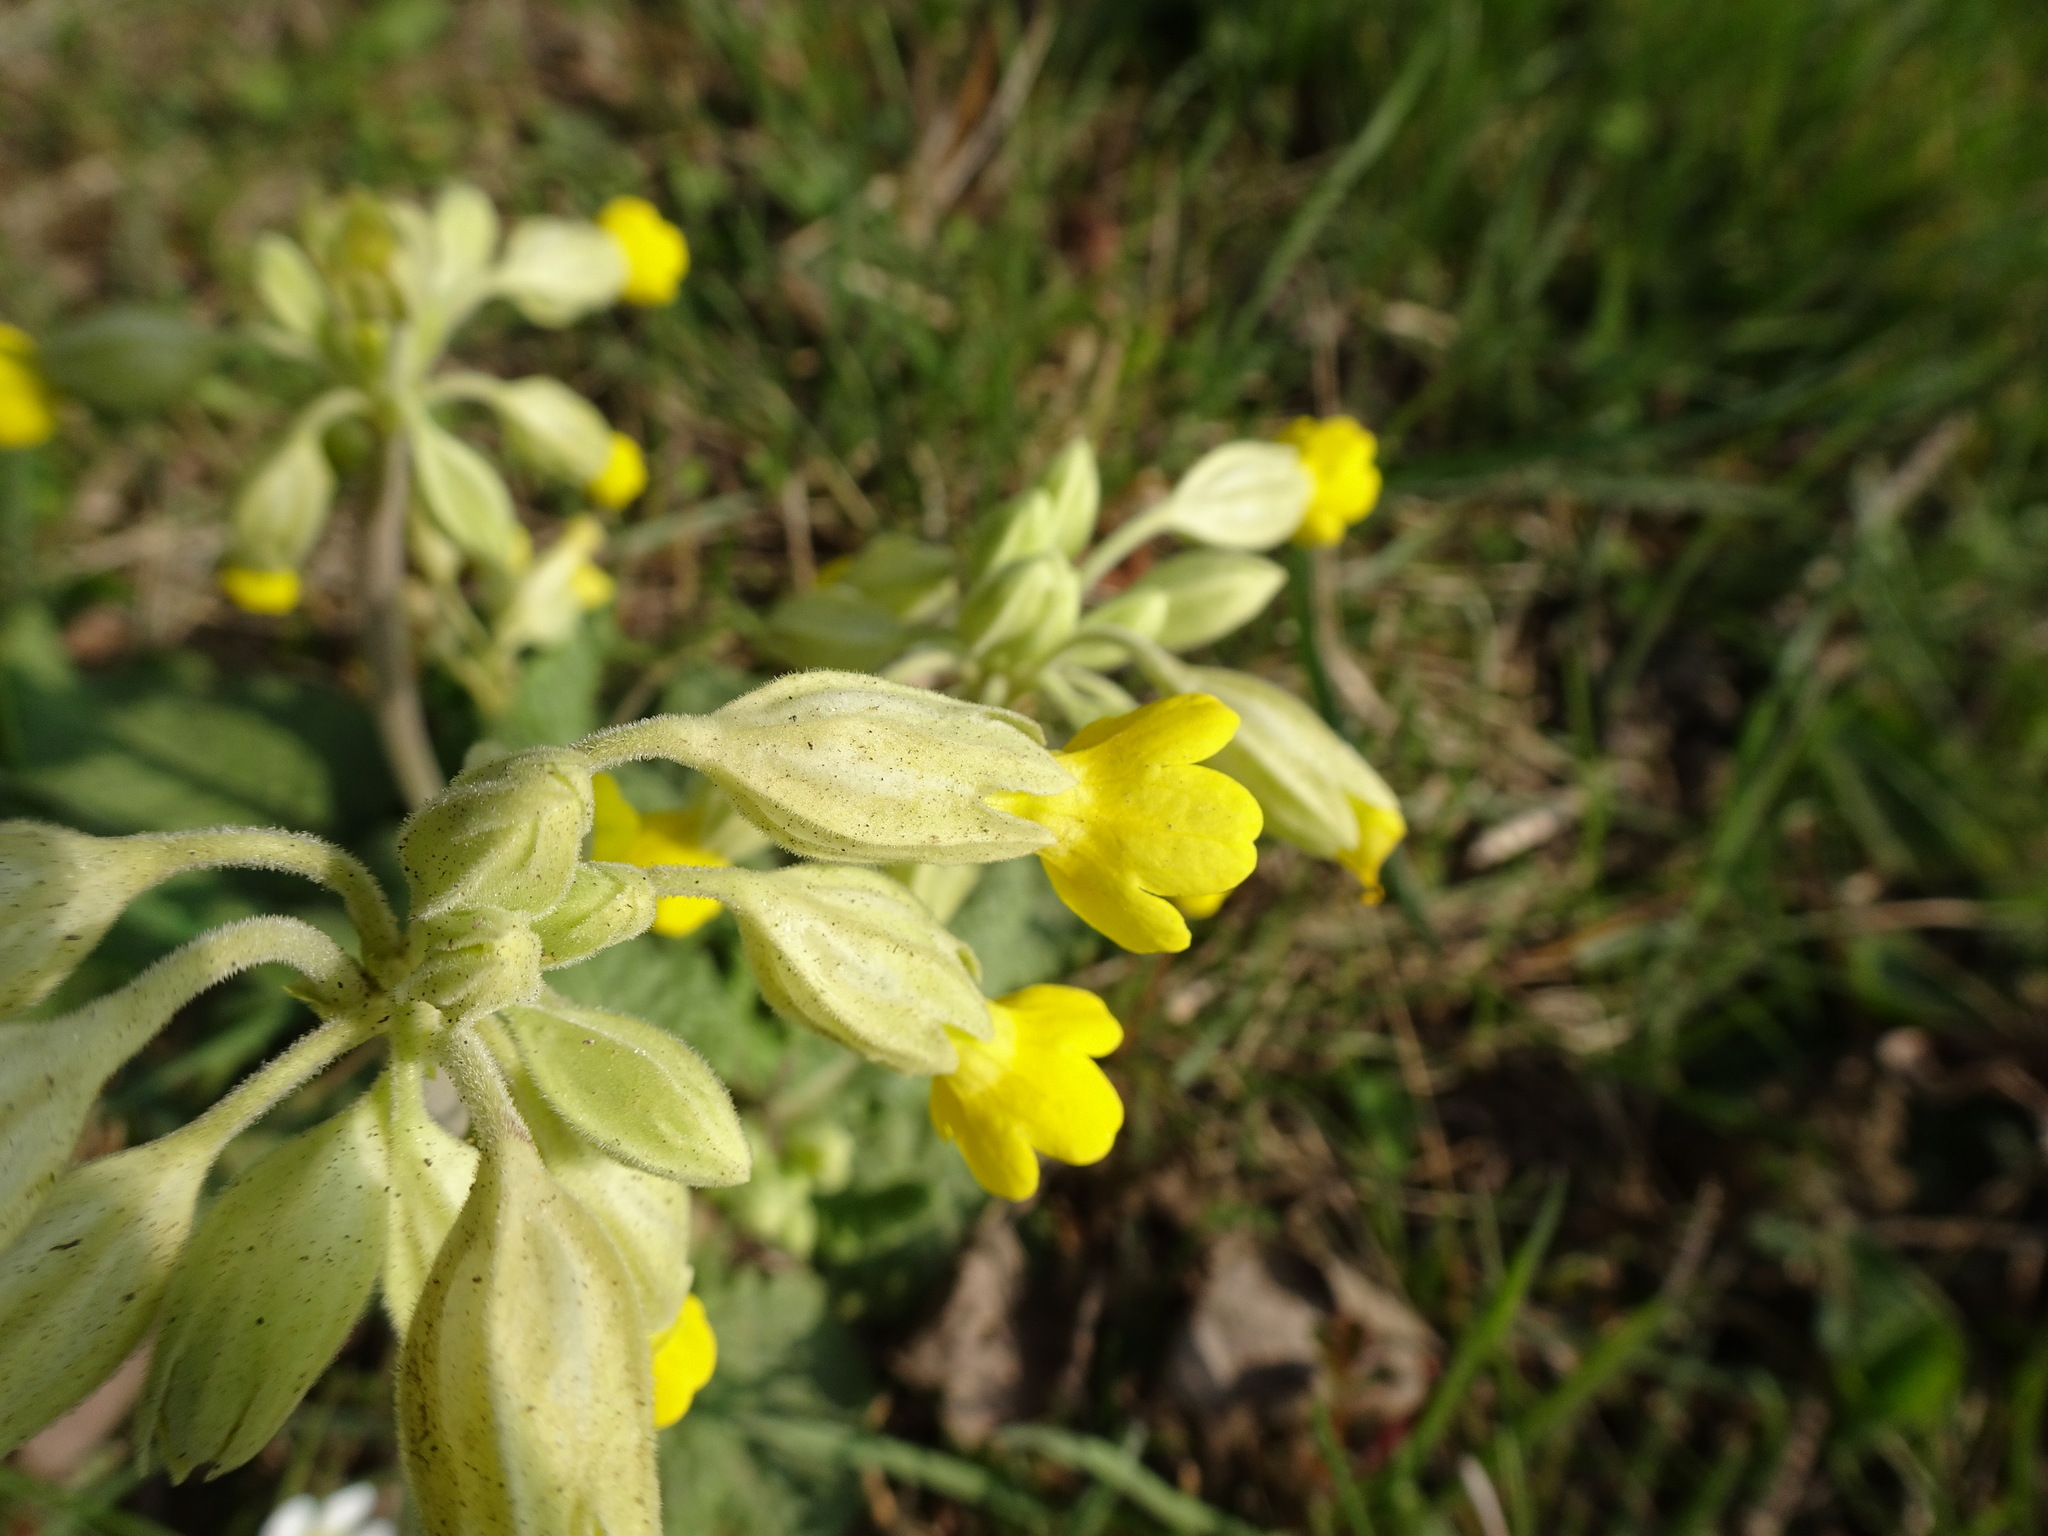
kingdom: Plantae
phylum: Tracheophyta
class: Magnoliopsida
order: Ericales
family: Primulaceae
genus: Primula
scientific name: Primula veris
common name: Cowslip
